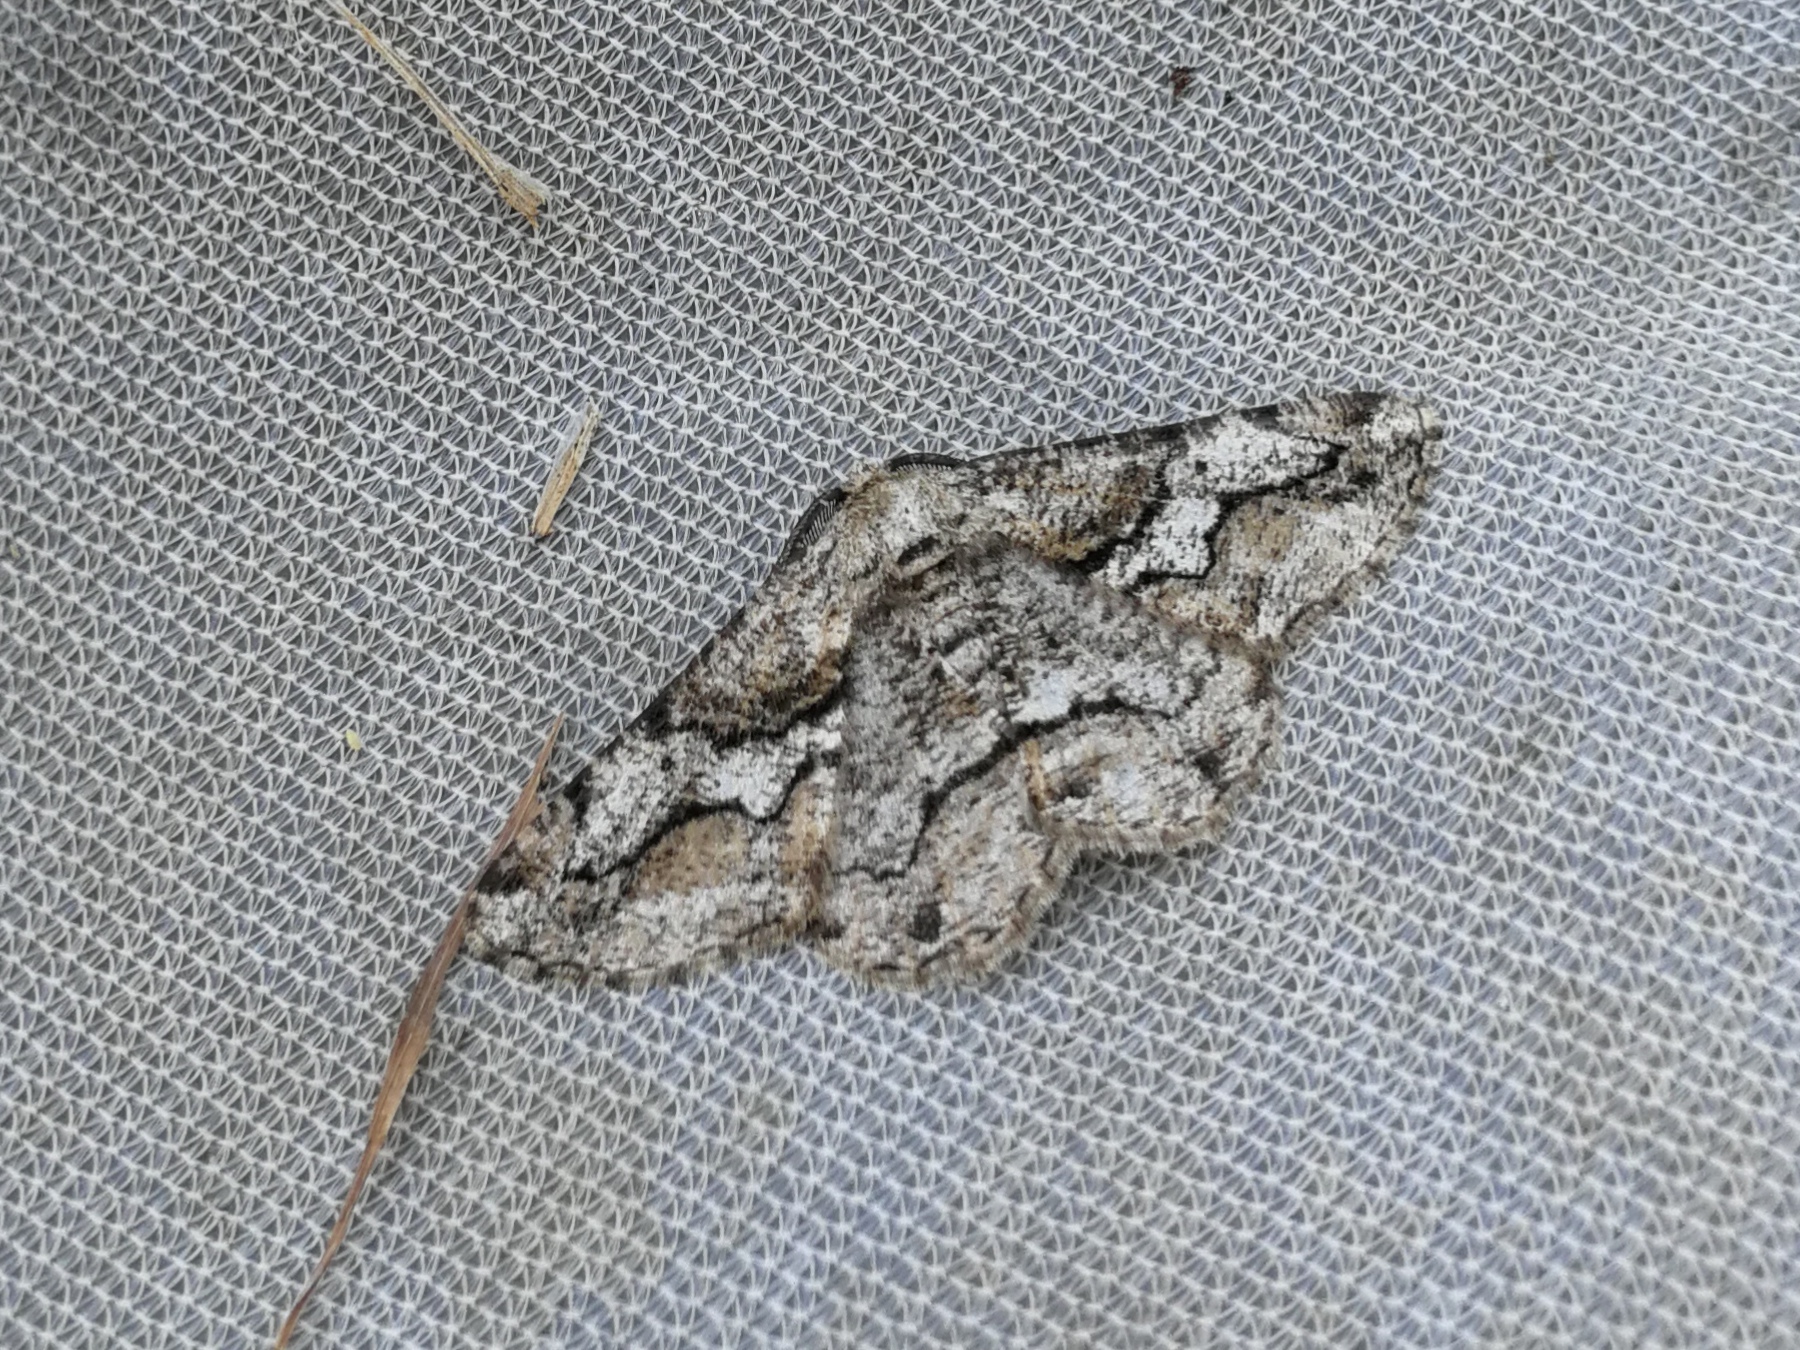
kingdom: Animalia
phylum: Arthropoda
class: Insecta
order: Lepidoptera
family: Geometridae
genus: Synopsia
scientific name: Synopsia sociaria
